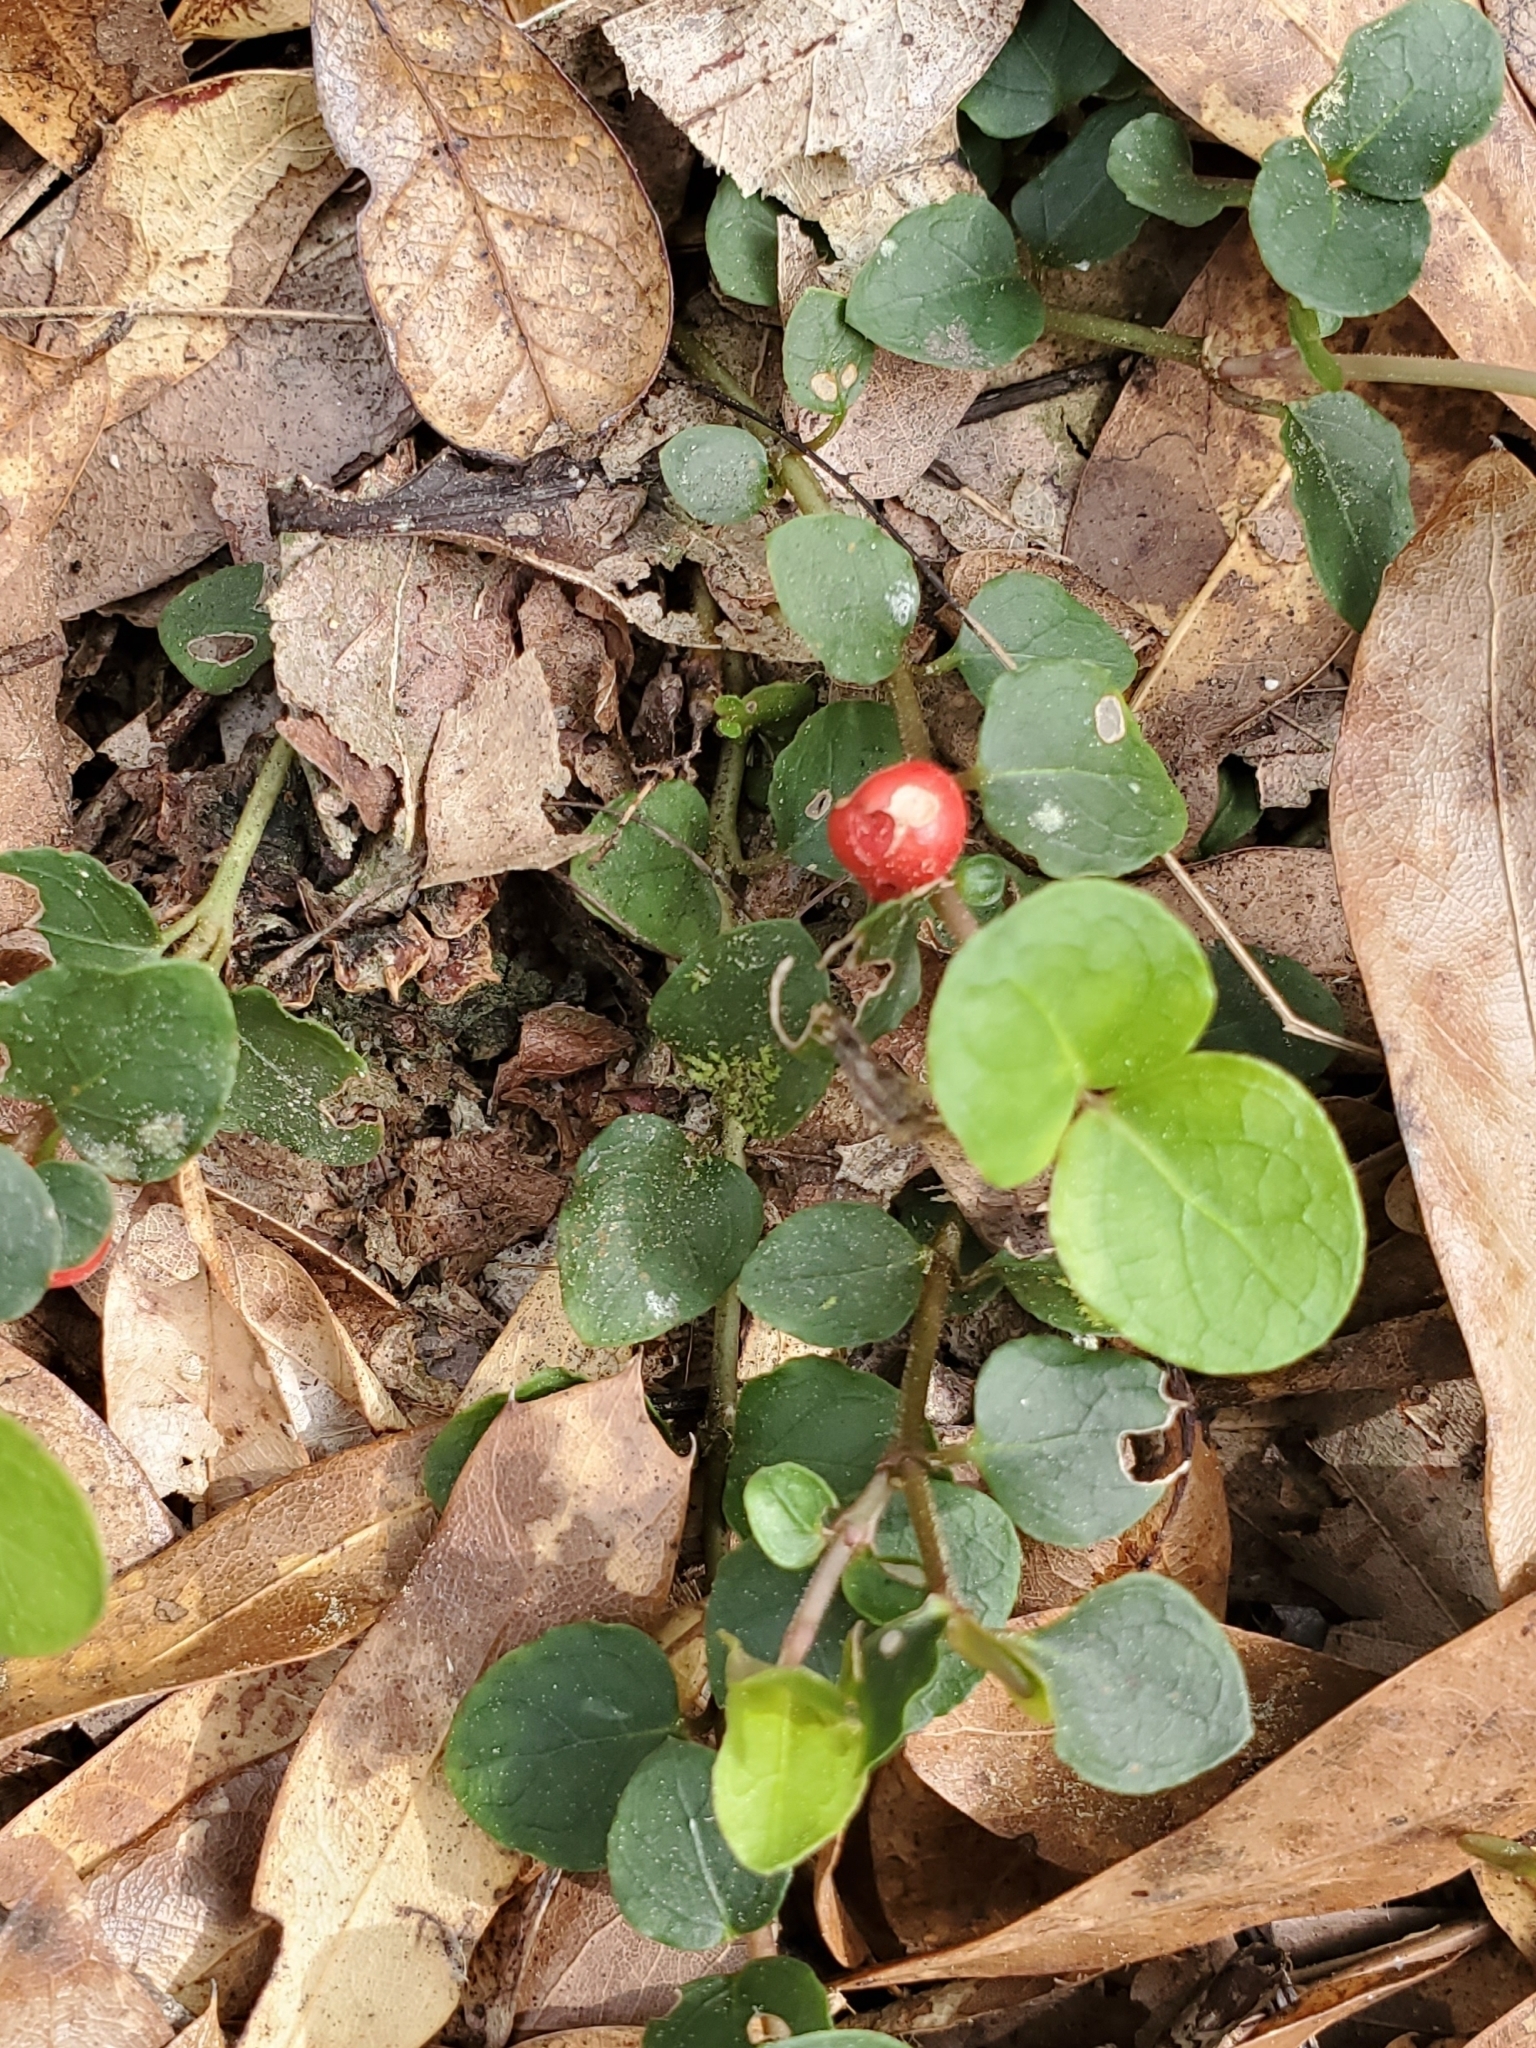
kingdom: Plantae
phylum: Tracheophyta
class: Magnoliopsida
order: Gentianales
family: Rubiaceae
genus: Mitchella
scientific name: Mitchella repens
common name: Partridge-berry
